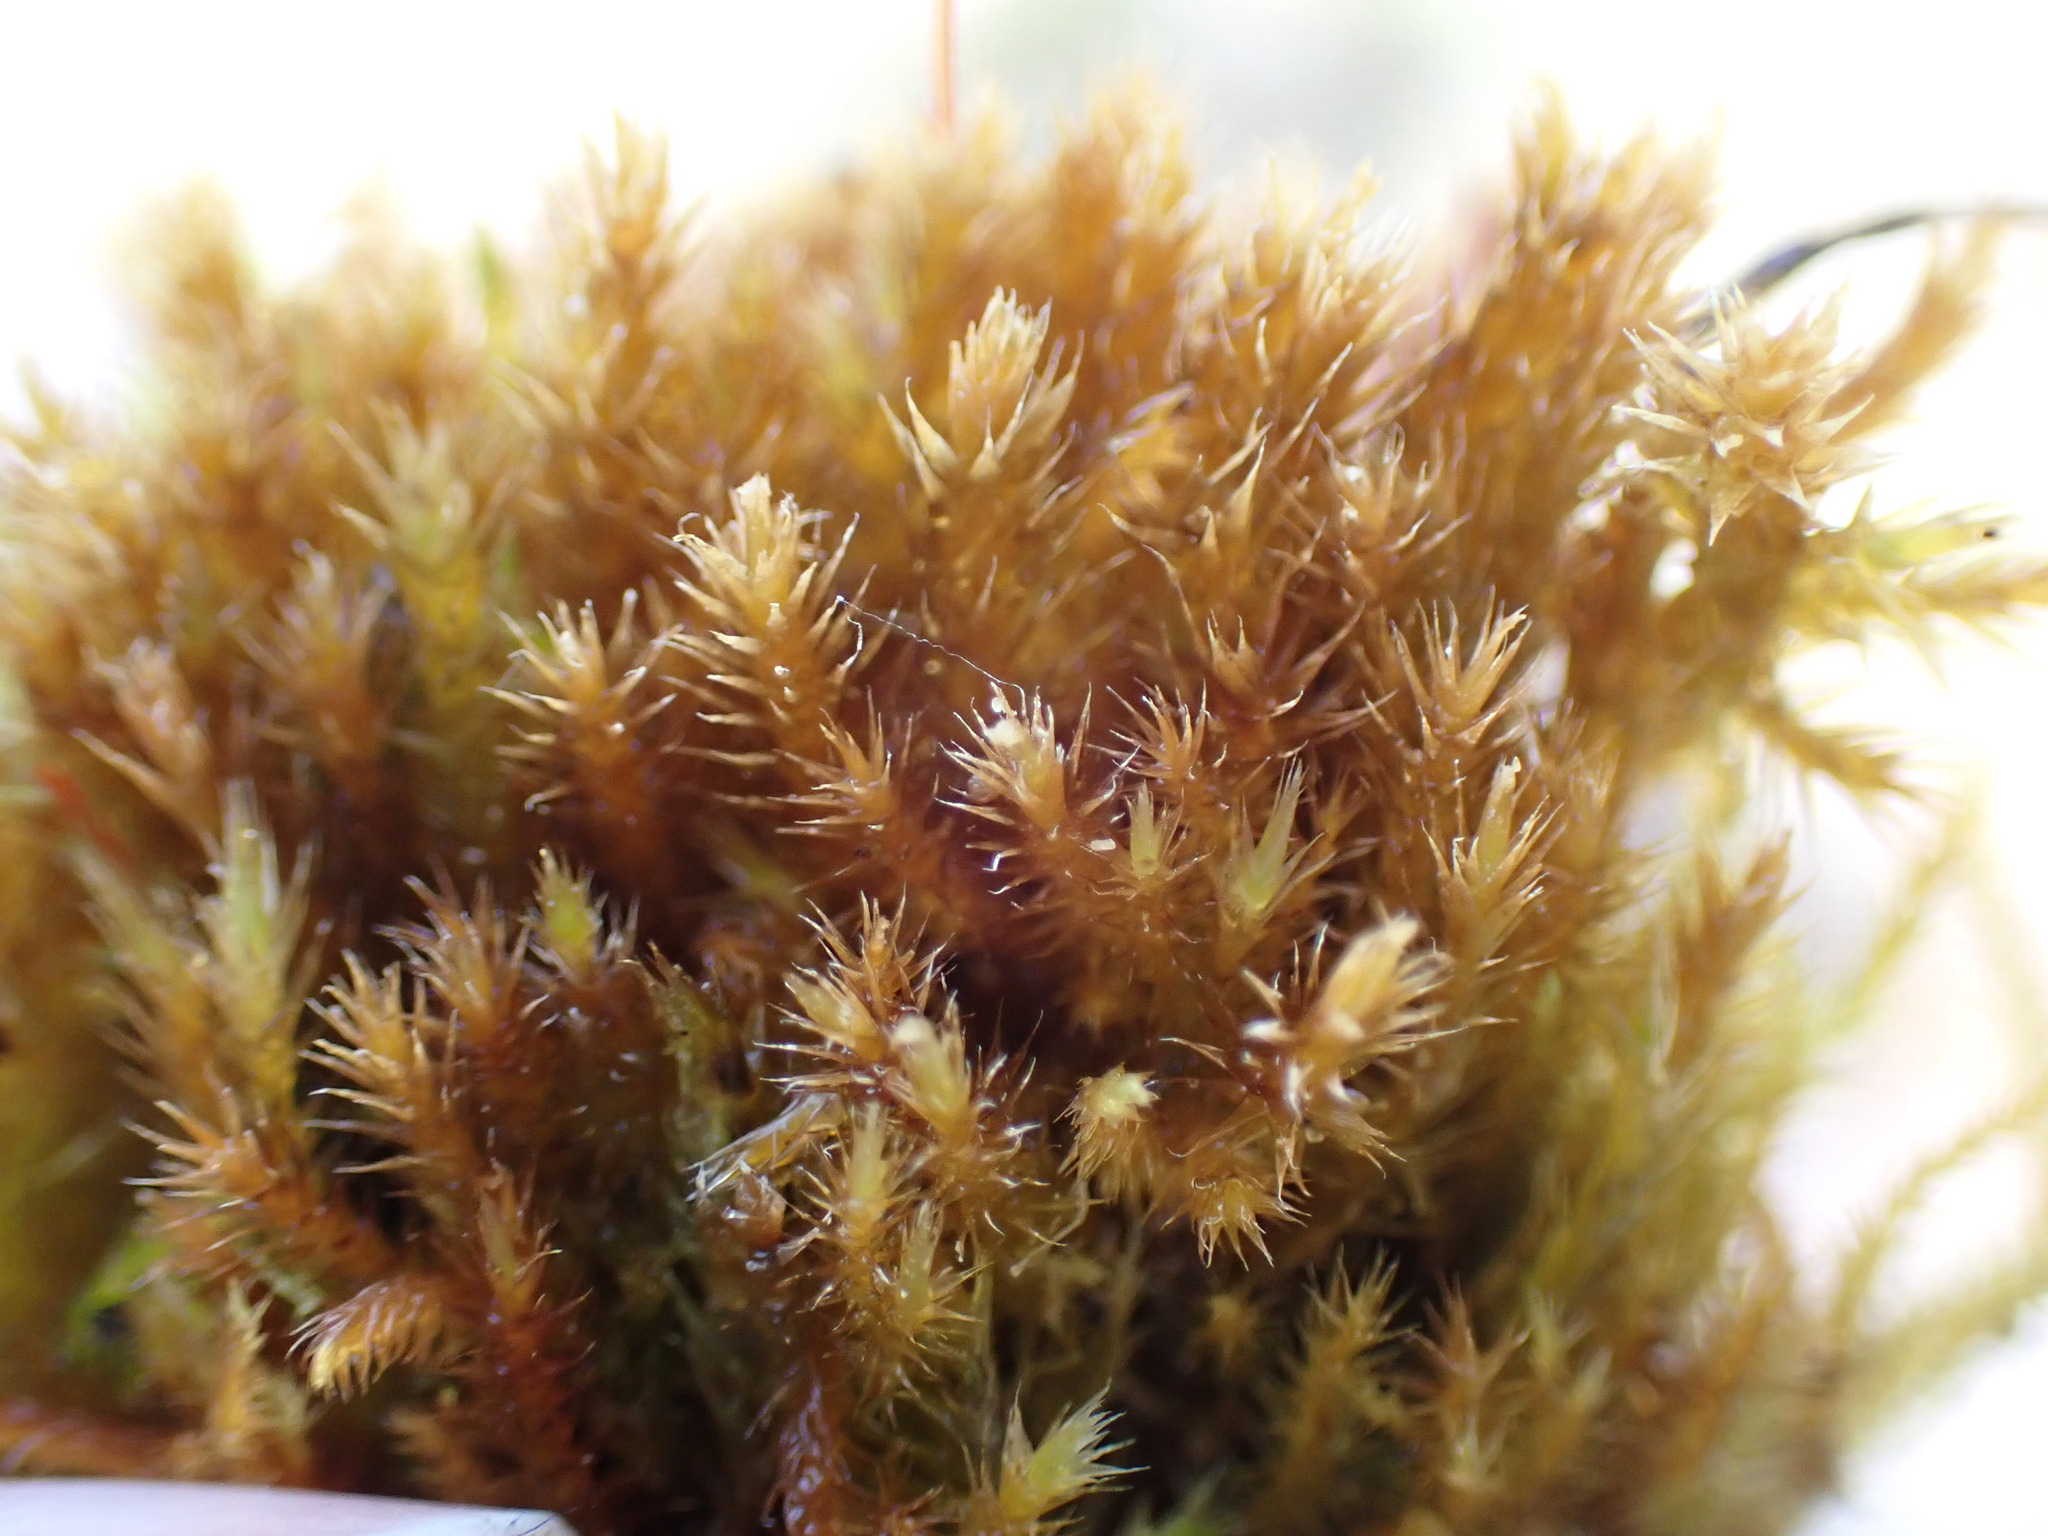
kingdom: Plantae
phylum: Bryophyta
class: Bryopsida
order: Hypnales
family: Amblystegiaceae
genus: Tomentypnum
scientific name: Tomentypnum nitens
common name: Golden fuzzy fen moss
